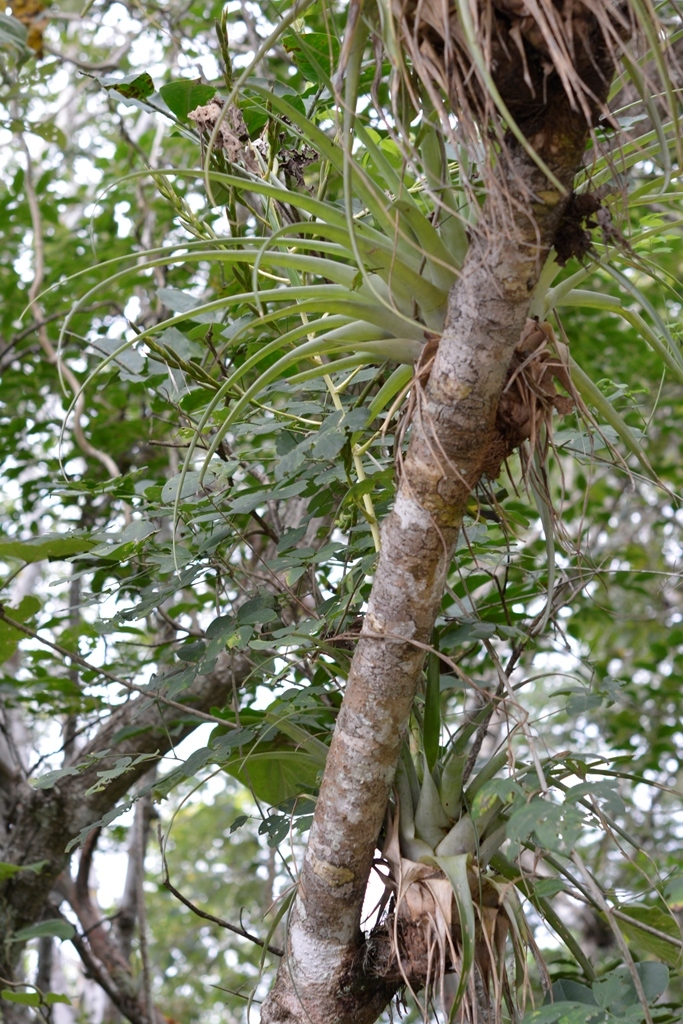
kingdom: Plantae
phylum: Tracheophyta
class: Liliopsida
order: Poales
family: Bromeliaceae
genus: Tillandsia
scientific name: Tillandsia elusiva
